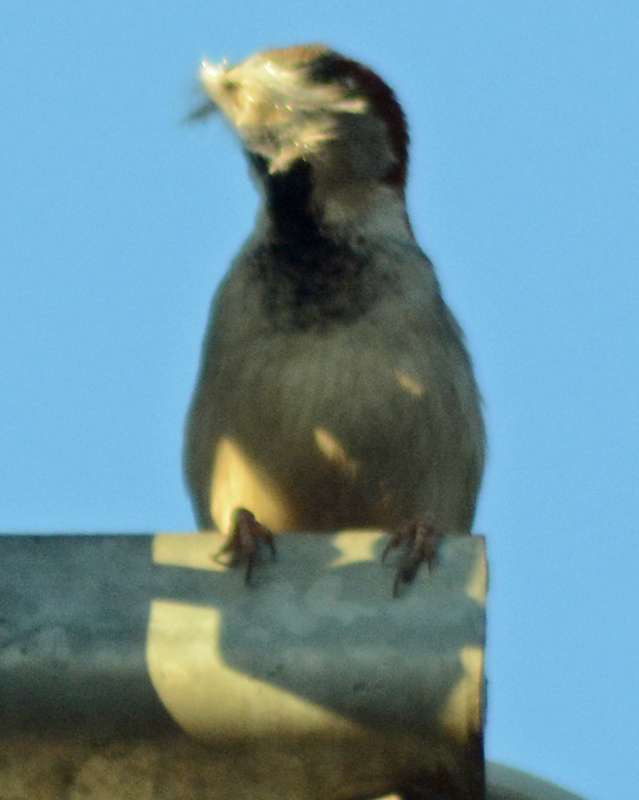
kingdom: Animalia
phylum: Chordata
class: Aves
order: Passeriformes
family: Passeridae
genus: Passer
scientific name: Passer domesticus
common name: House sparrow
